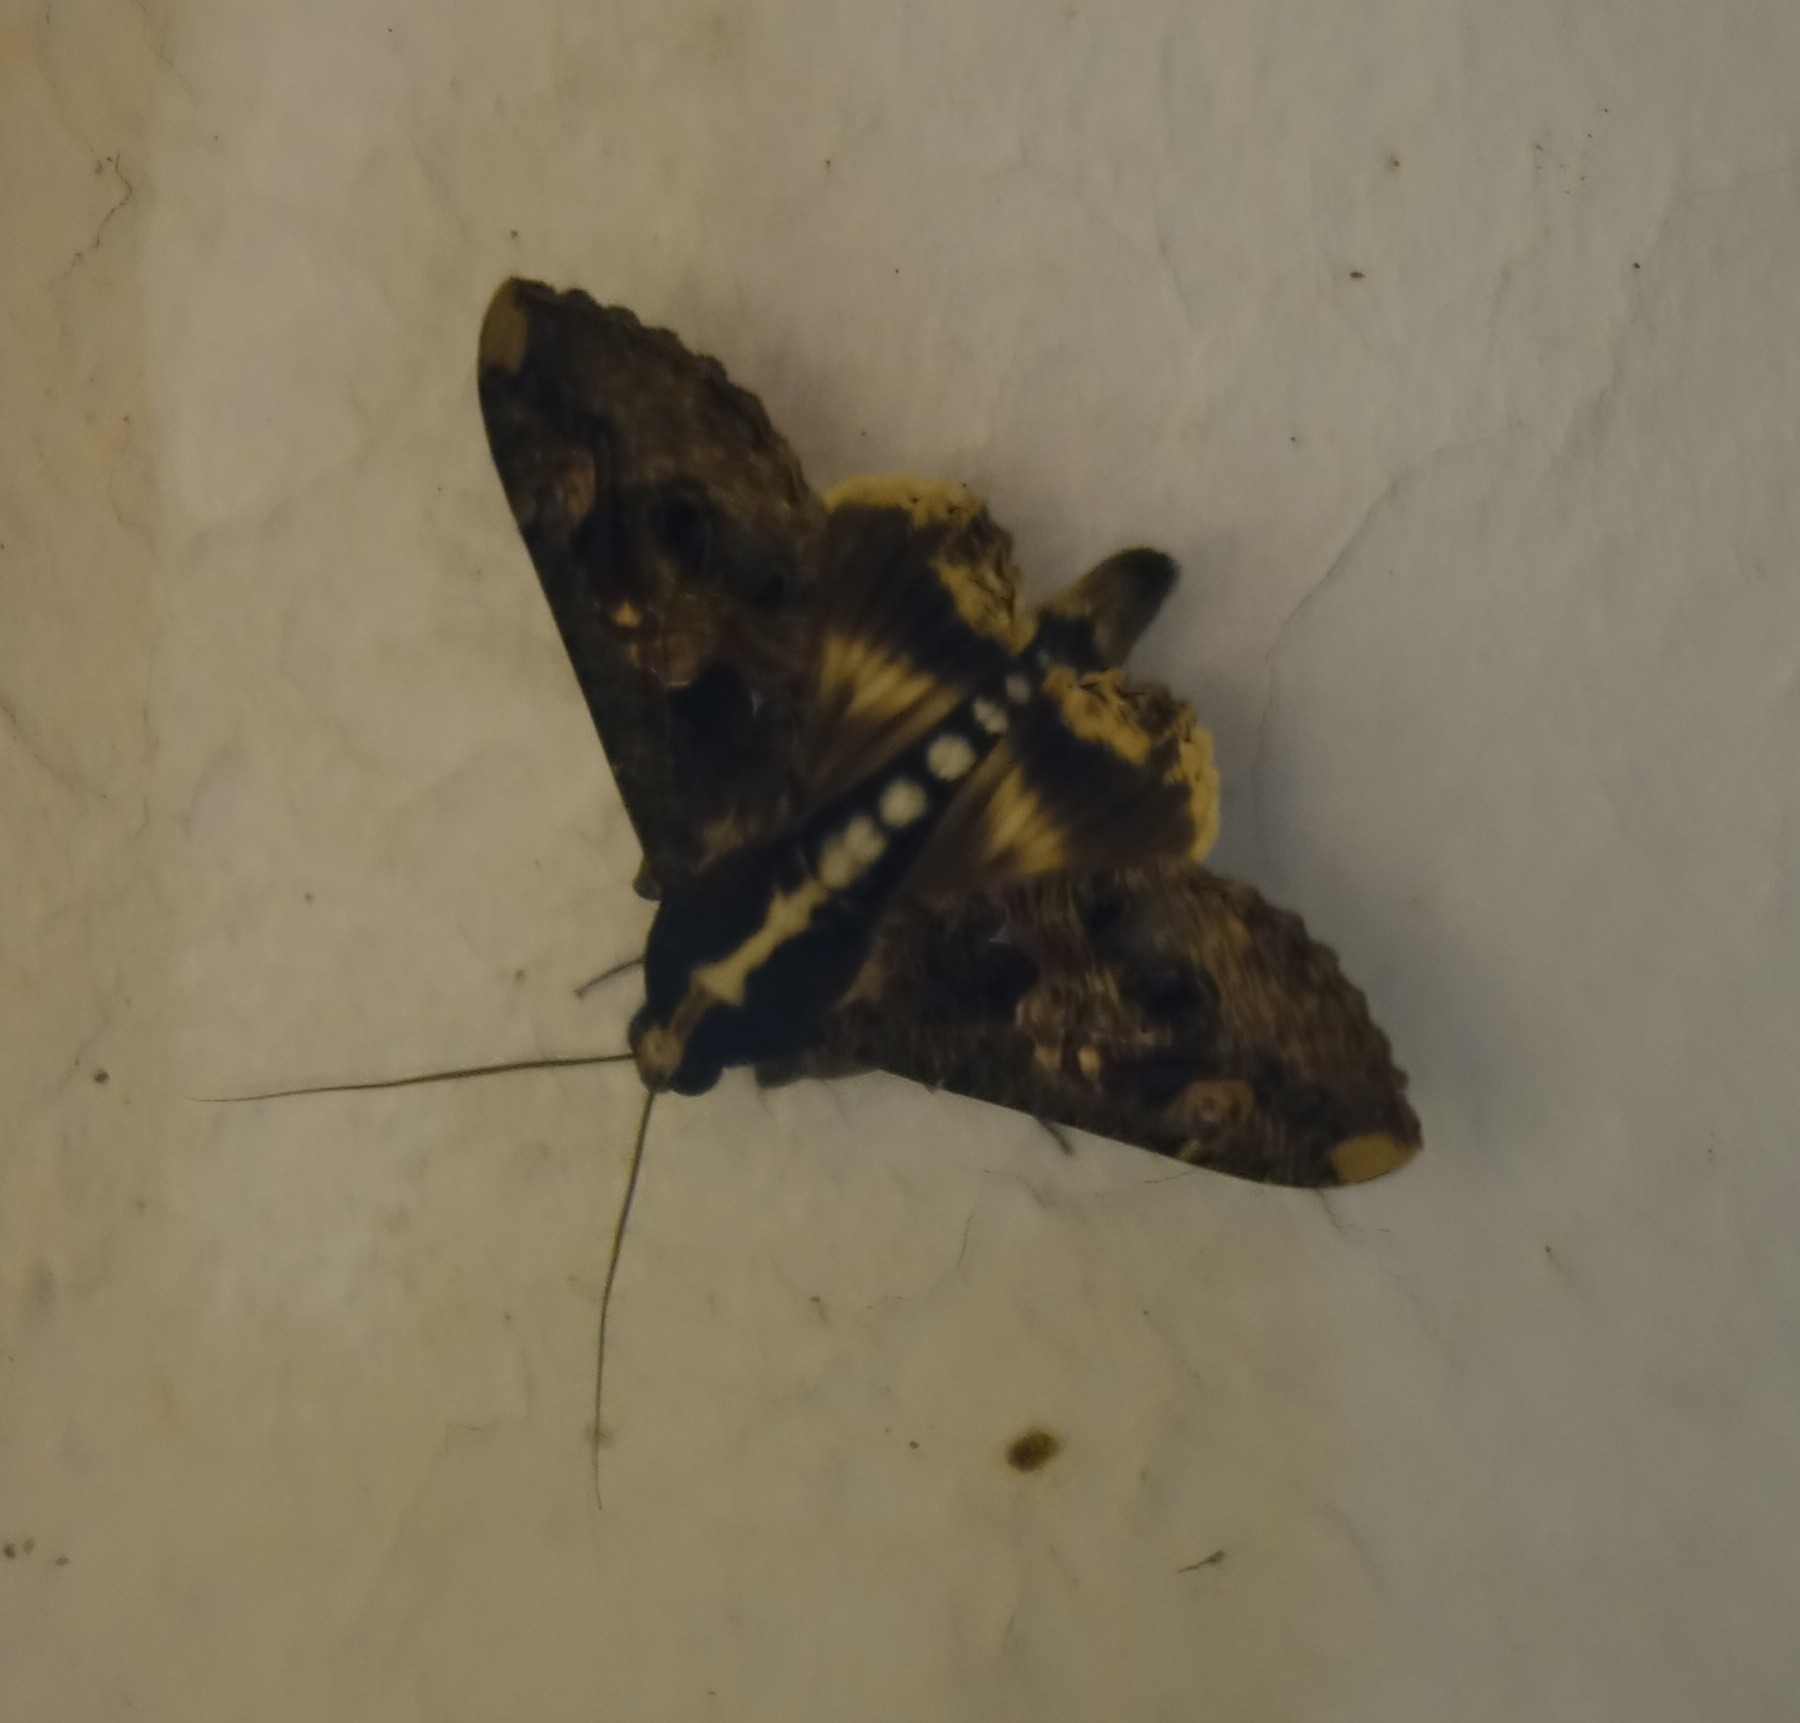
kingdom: Animalia
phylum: Arthropoda
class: Insecta
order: Lepidoptera
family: Erebidae
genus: Sphingomorpha
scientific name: Sphingomorpha chlorea
